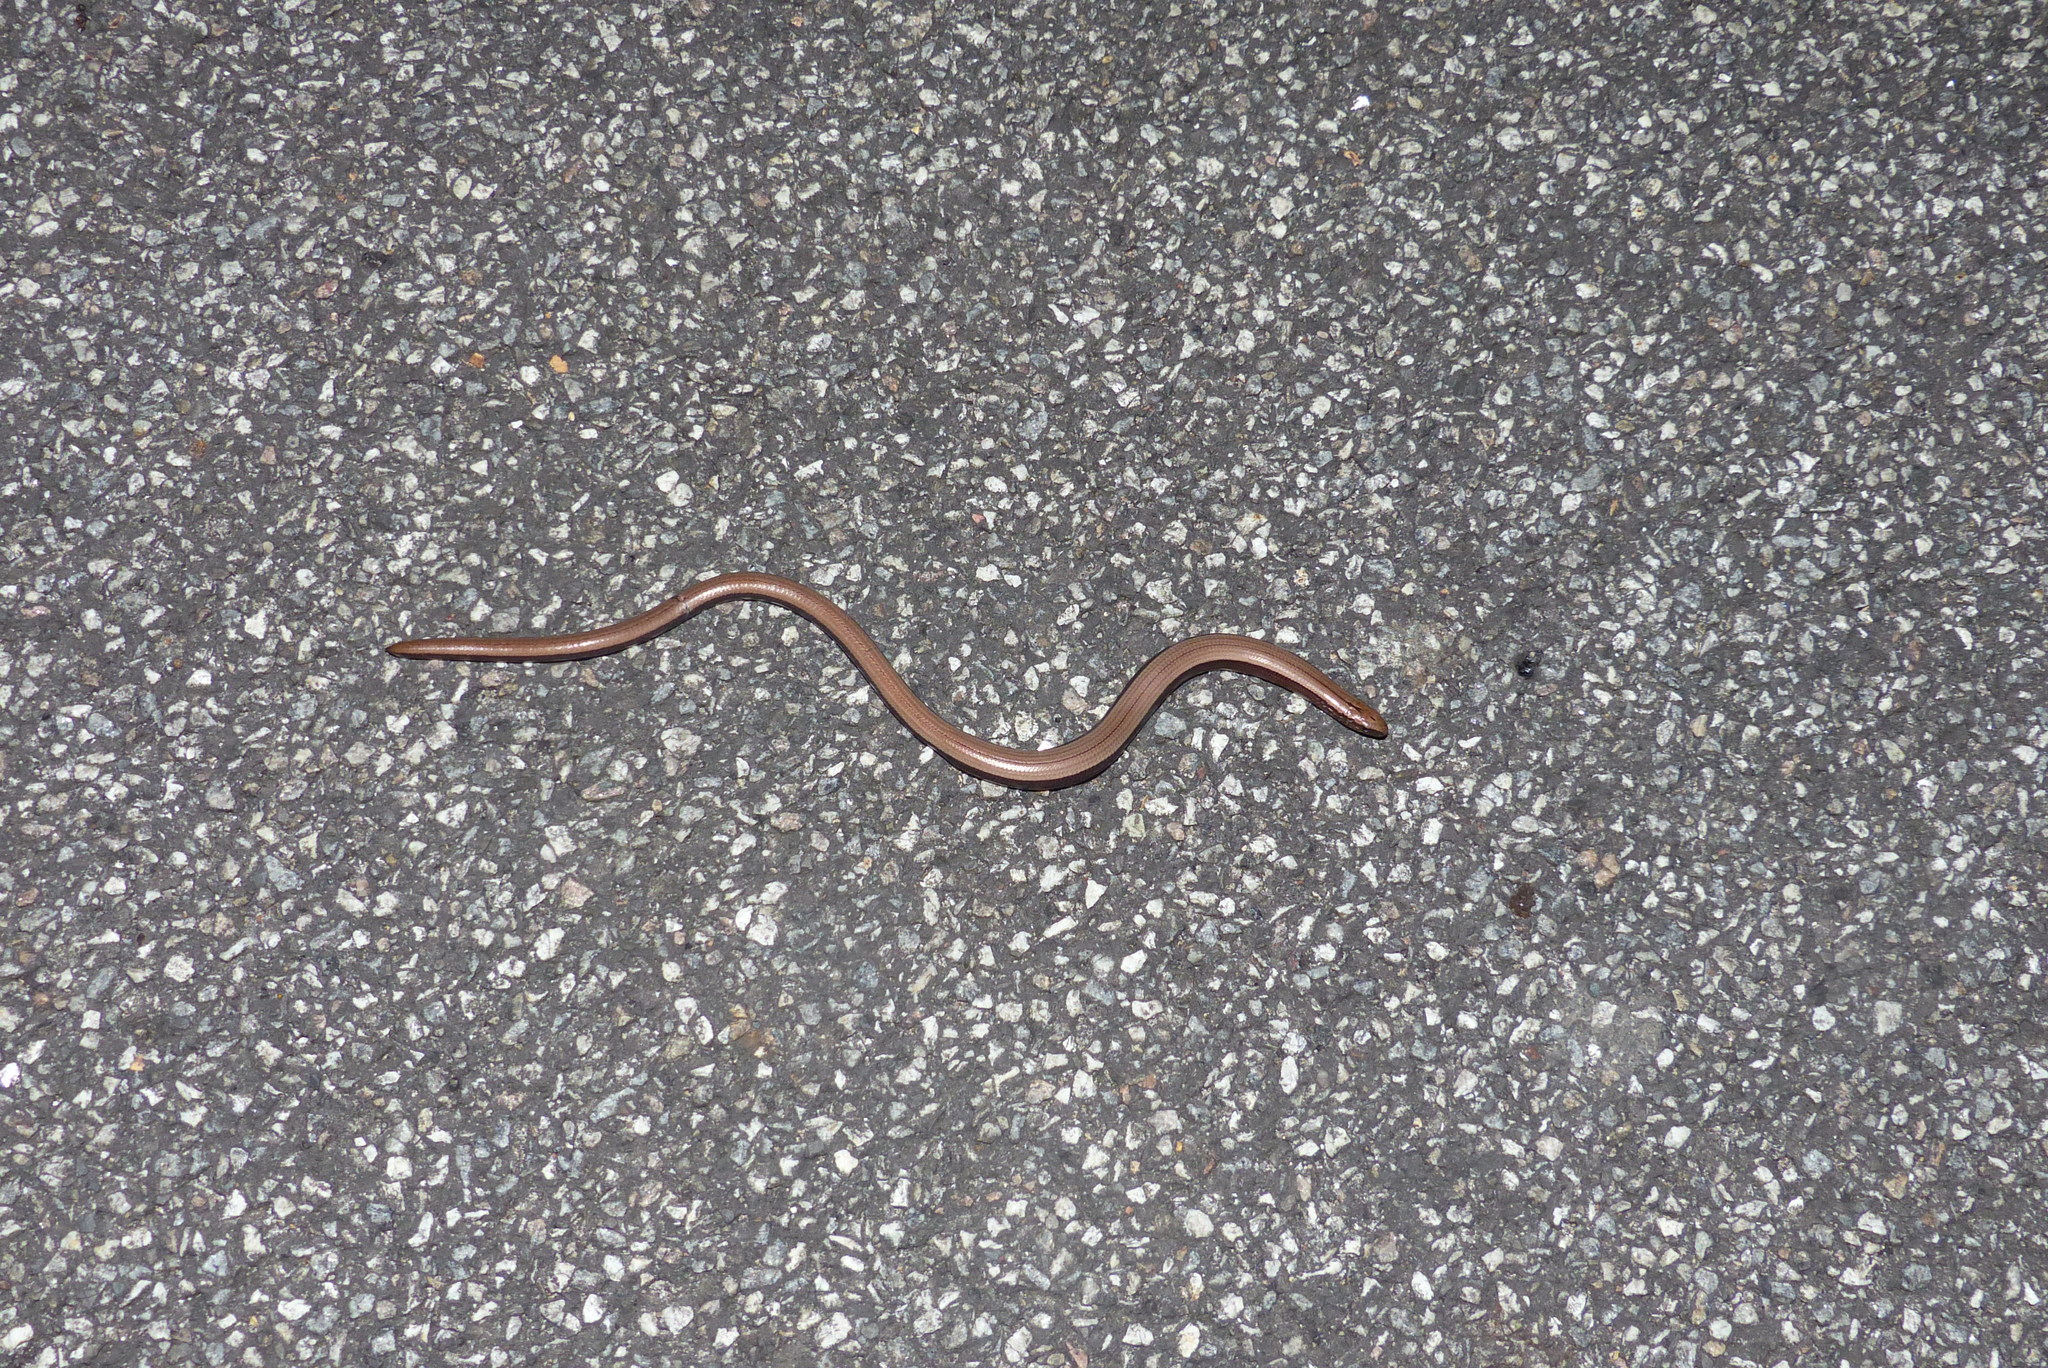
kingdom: Animalia
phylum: Chordata
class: Squamata
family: Anguidae
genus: Anguis
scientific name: Anguis fragilis
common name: Slow worm
